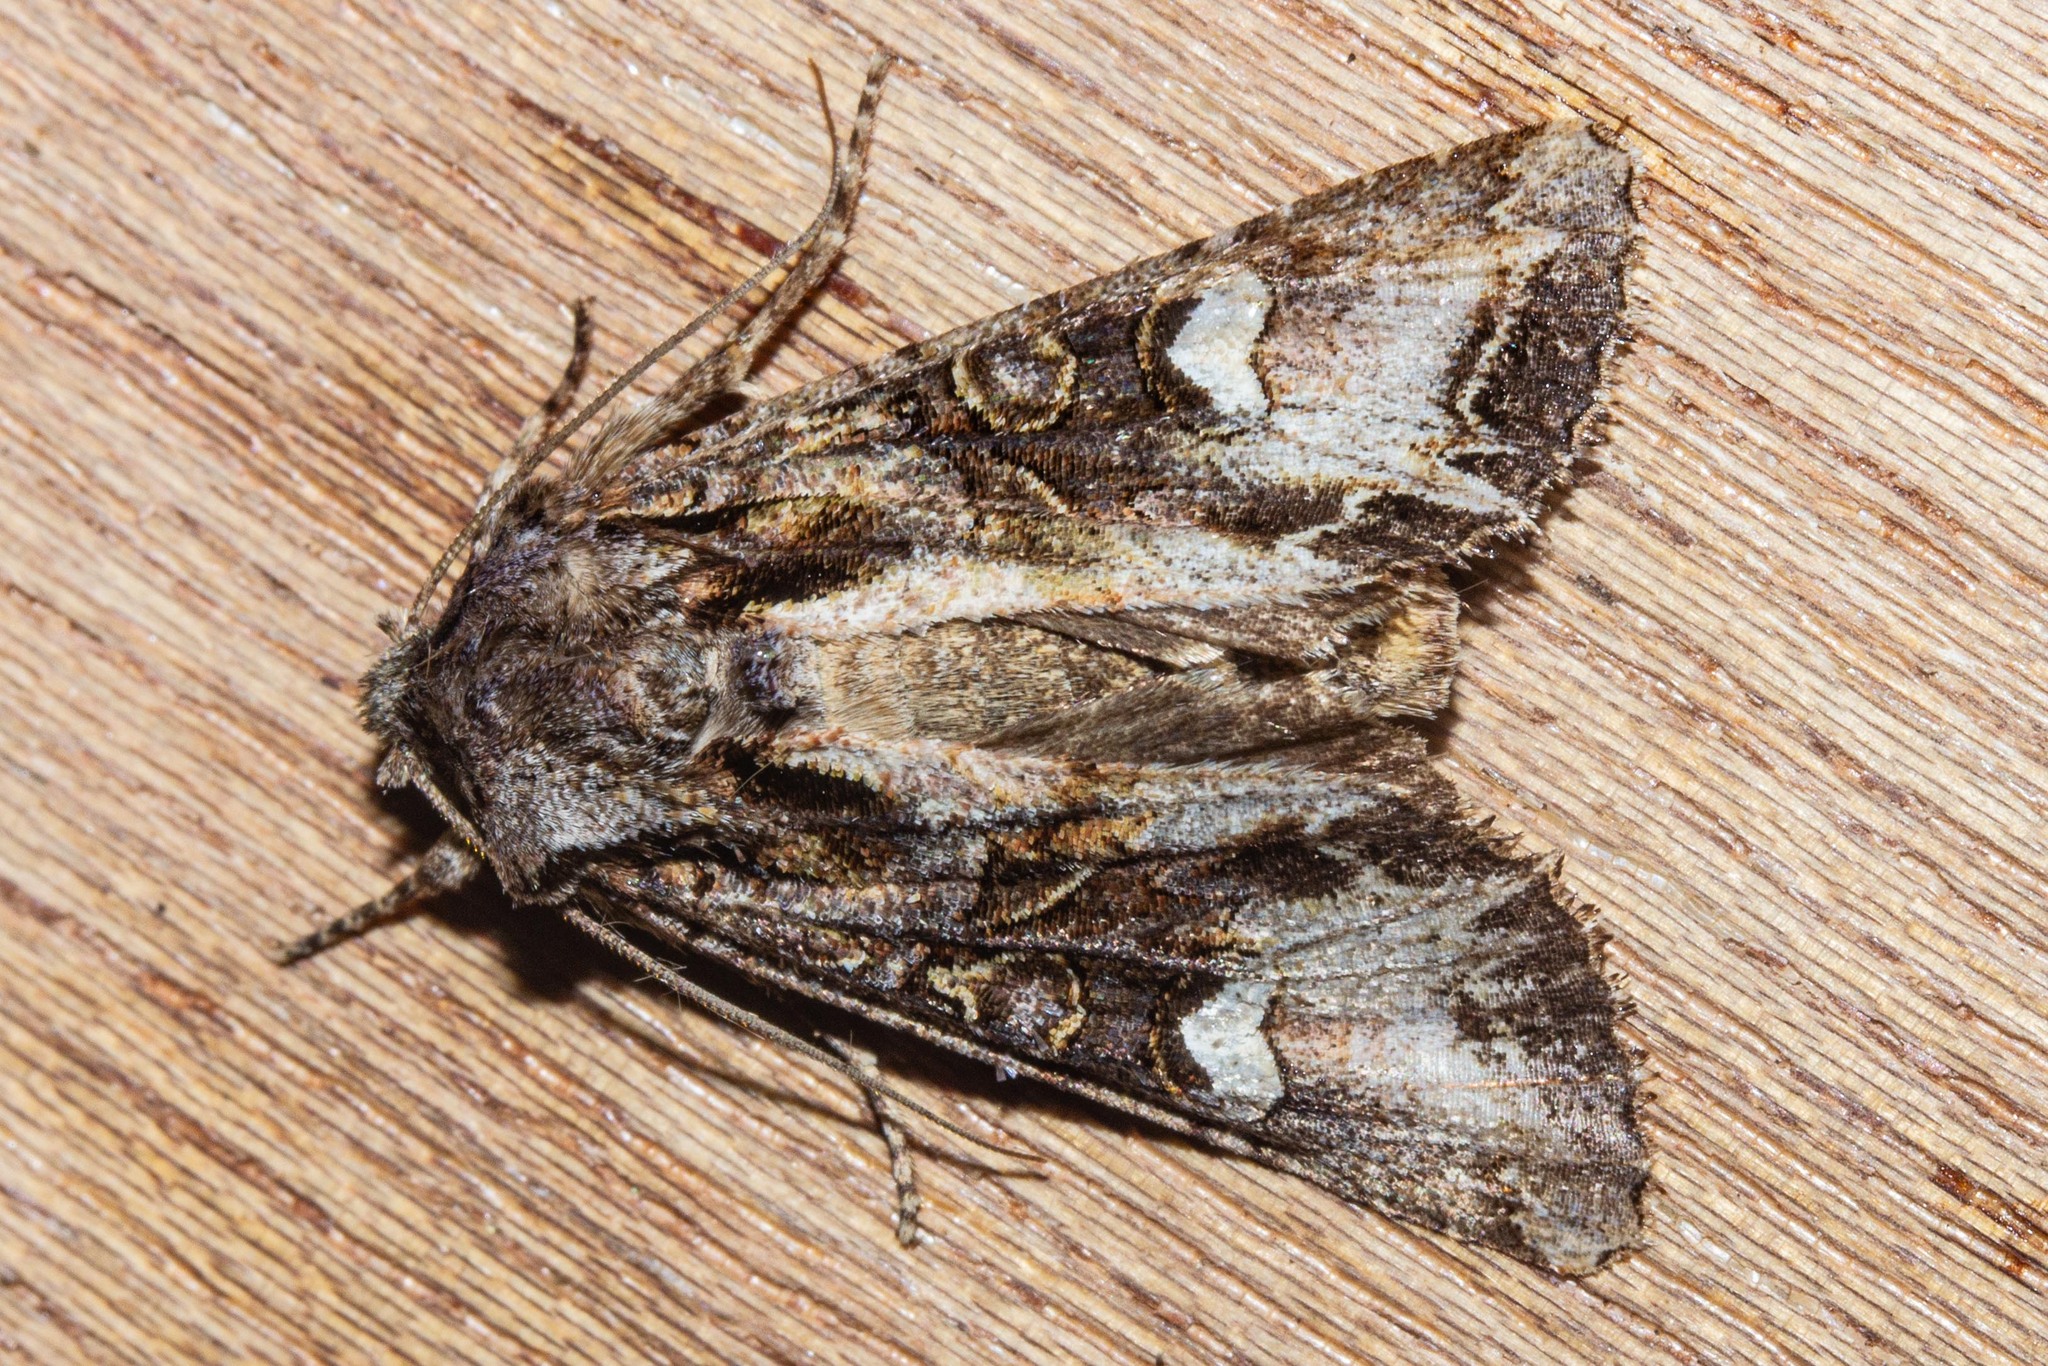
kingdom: Animalia
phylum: Arthropoda
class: Insecta
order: Lepidoptera
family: Noctuidae
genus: Ichneutica
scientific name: Ichneutica insignis
